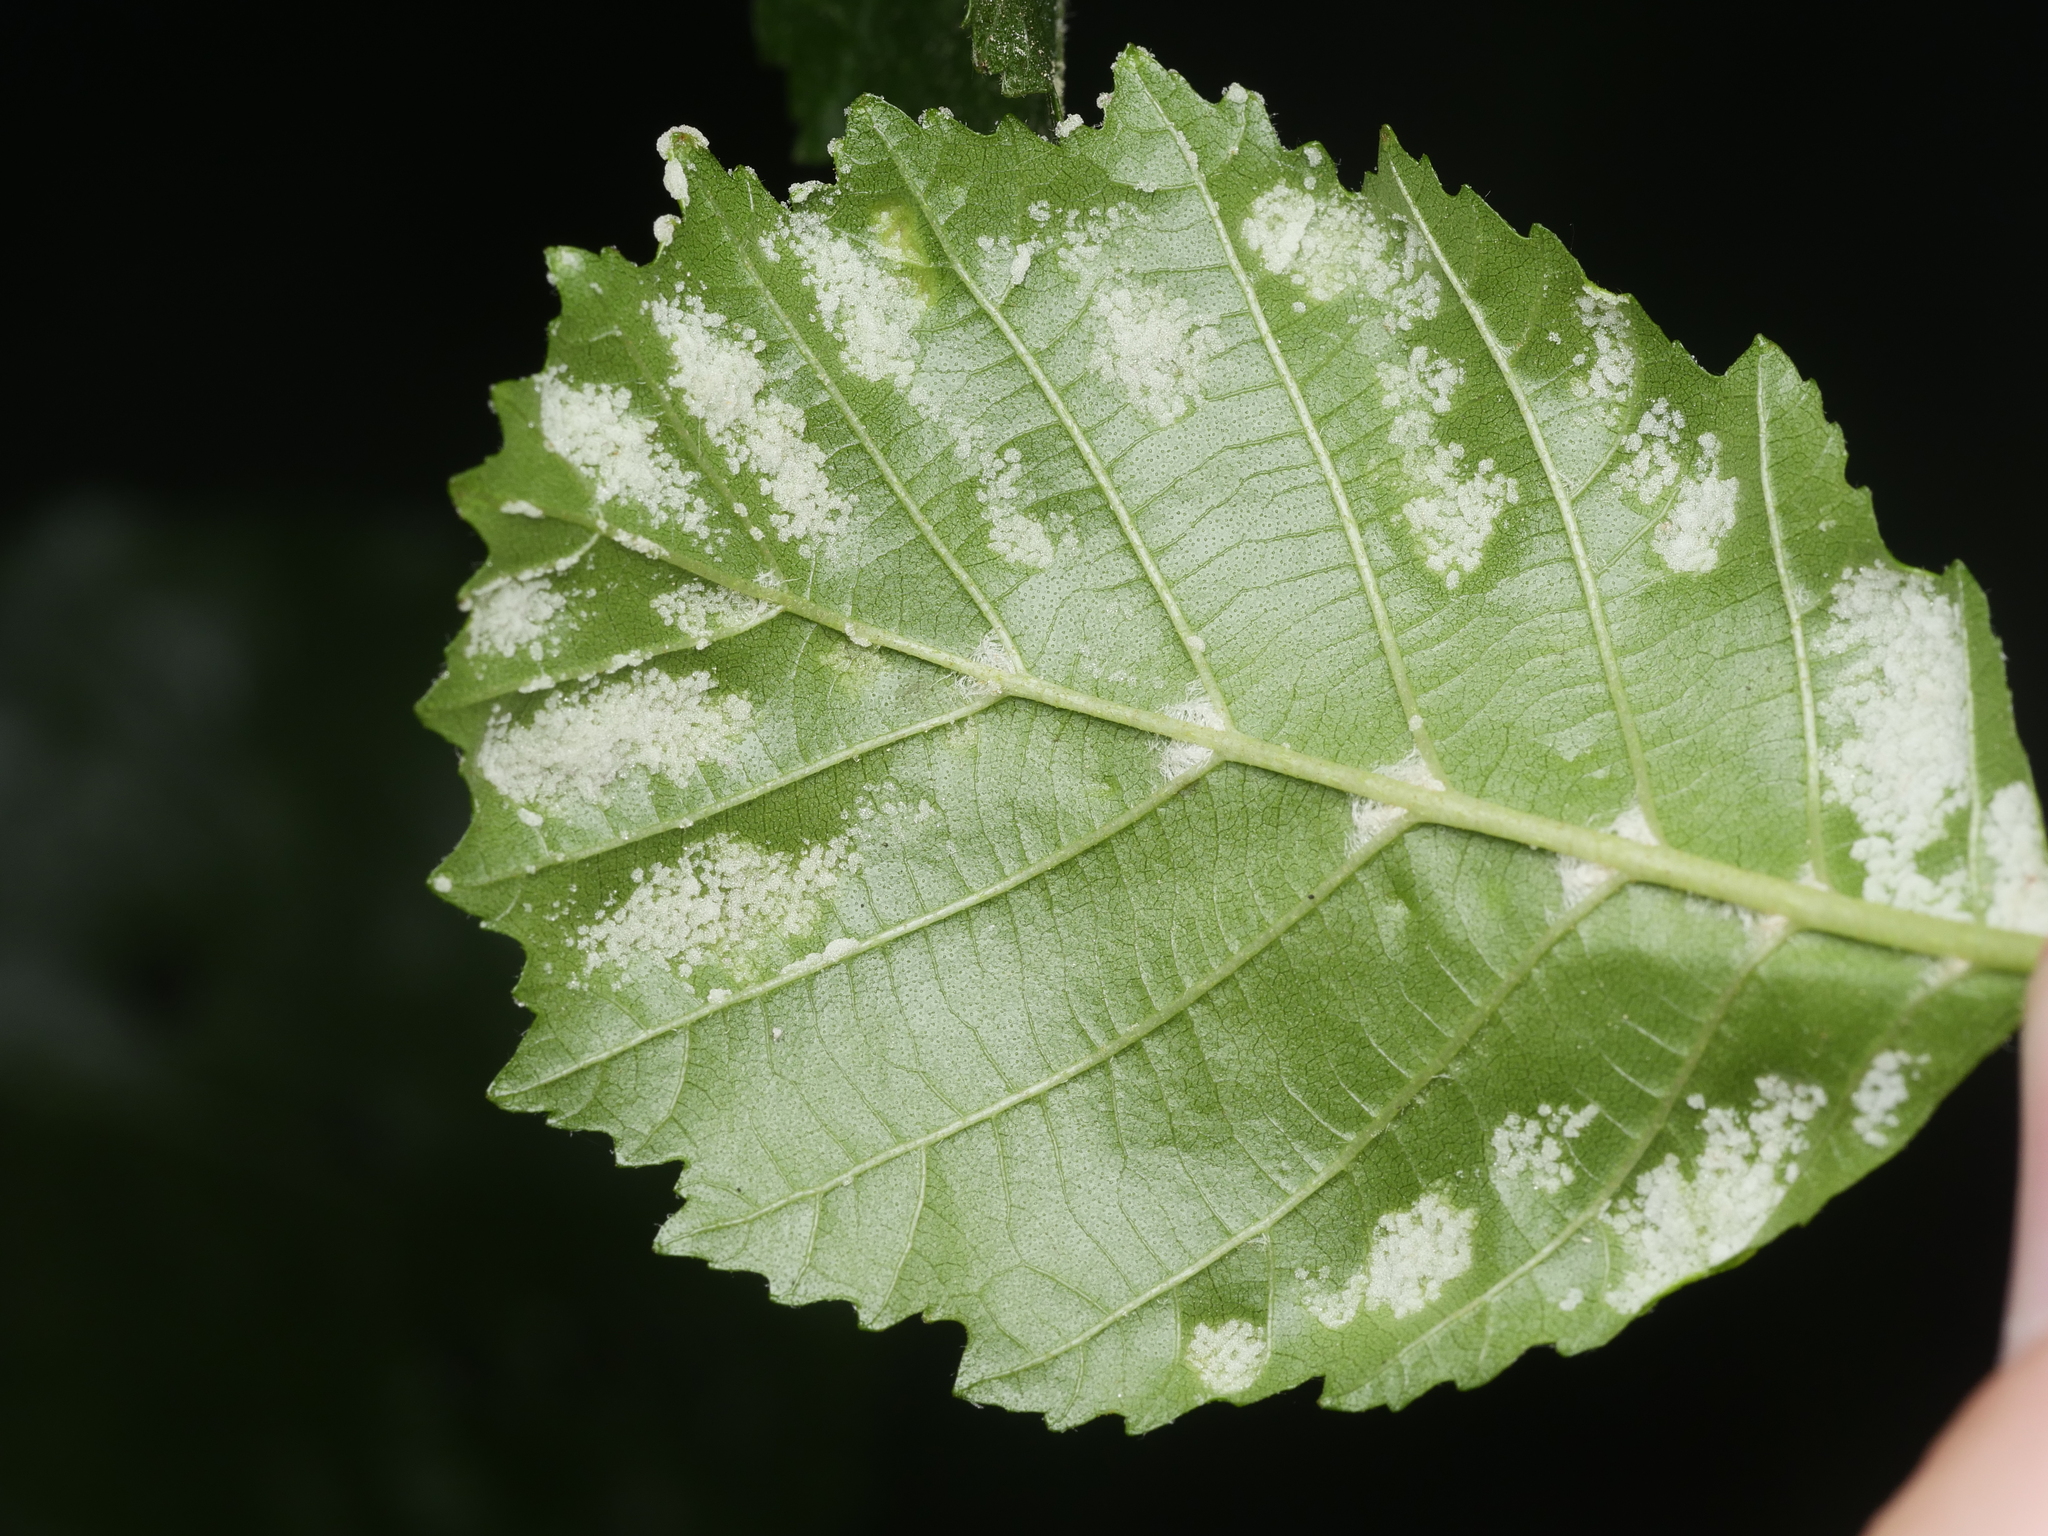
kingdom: Animalia
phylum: Arthropoda
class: Arachnida
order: Trombidiformes
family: Eriophyidae
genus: Acalitus
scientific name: Acalitus brevitarsus
